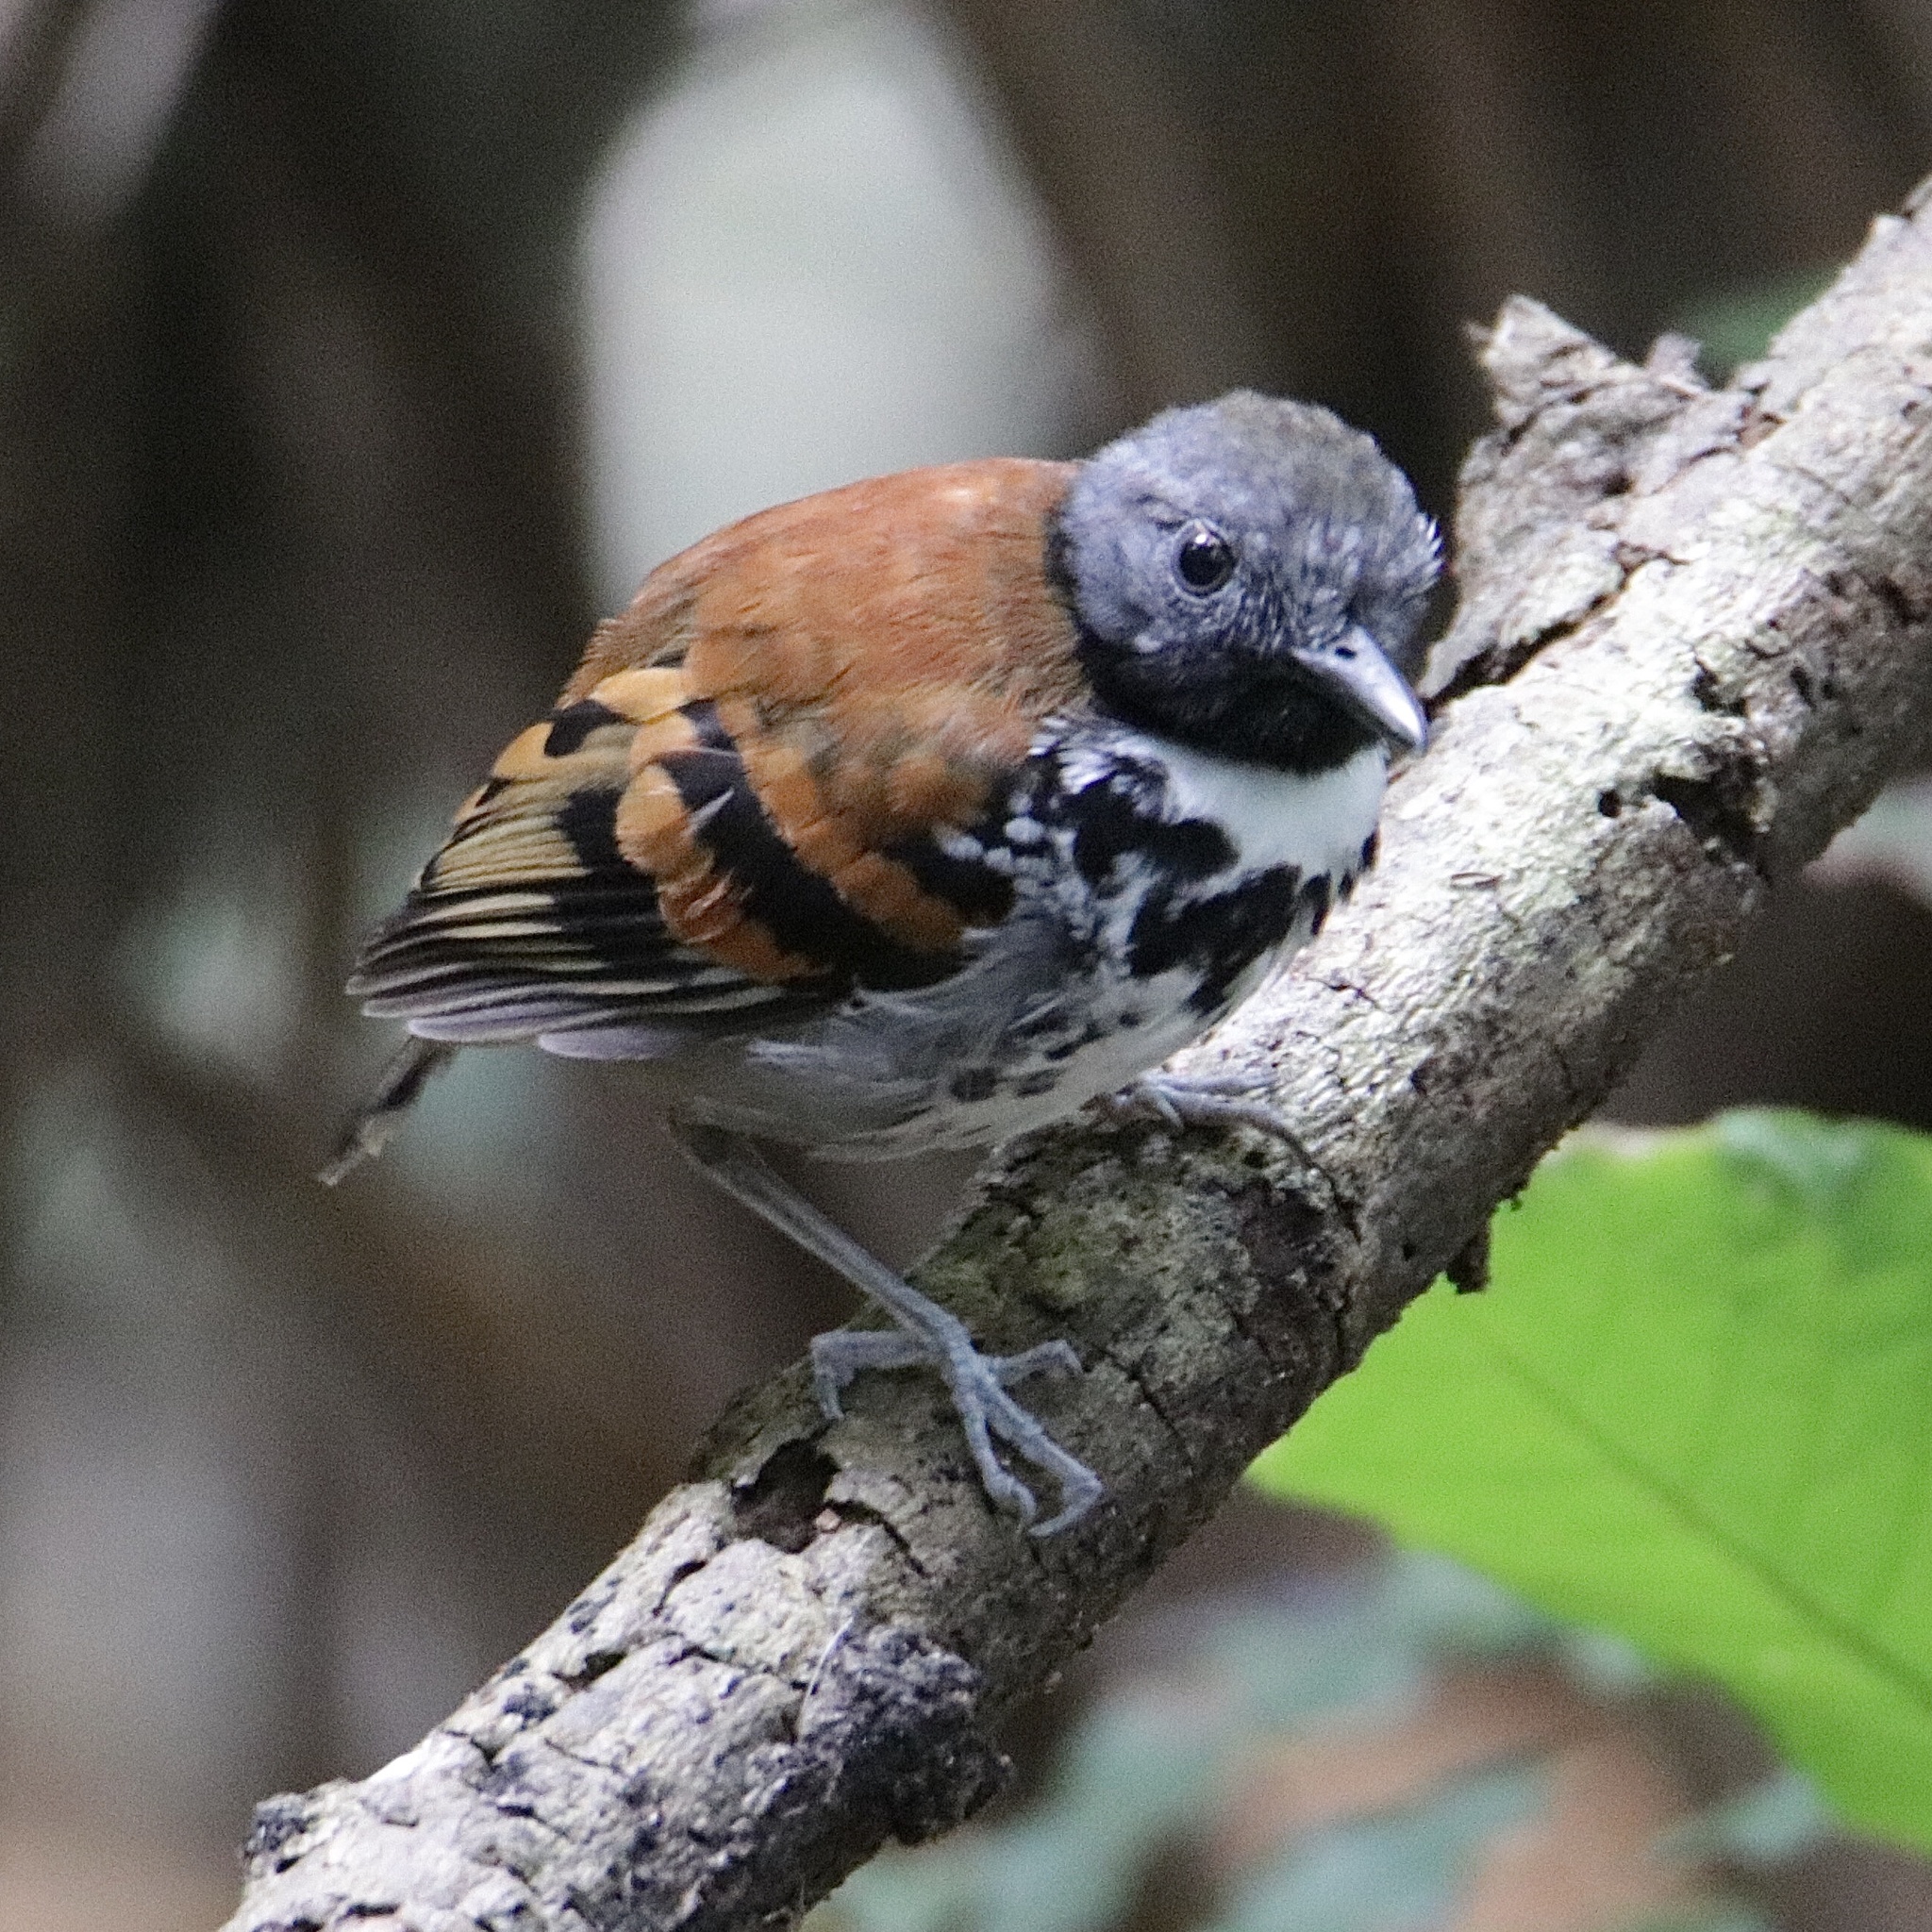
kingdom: Animalia
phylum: Chordata
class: Aves
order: Passeriformes
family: Thamnophilidae
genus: Hylophylax
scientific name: Hylophylax naevioides
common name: Spotted antbird
